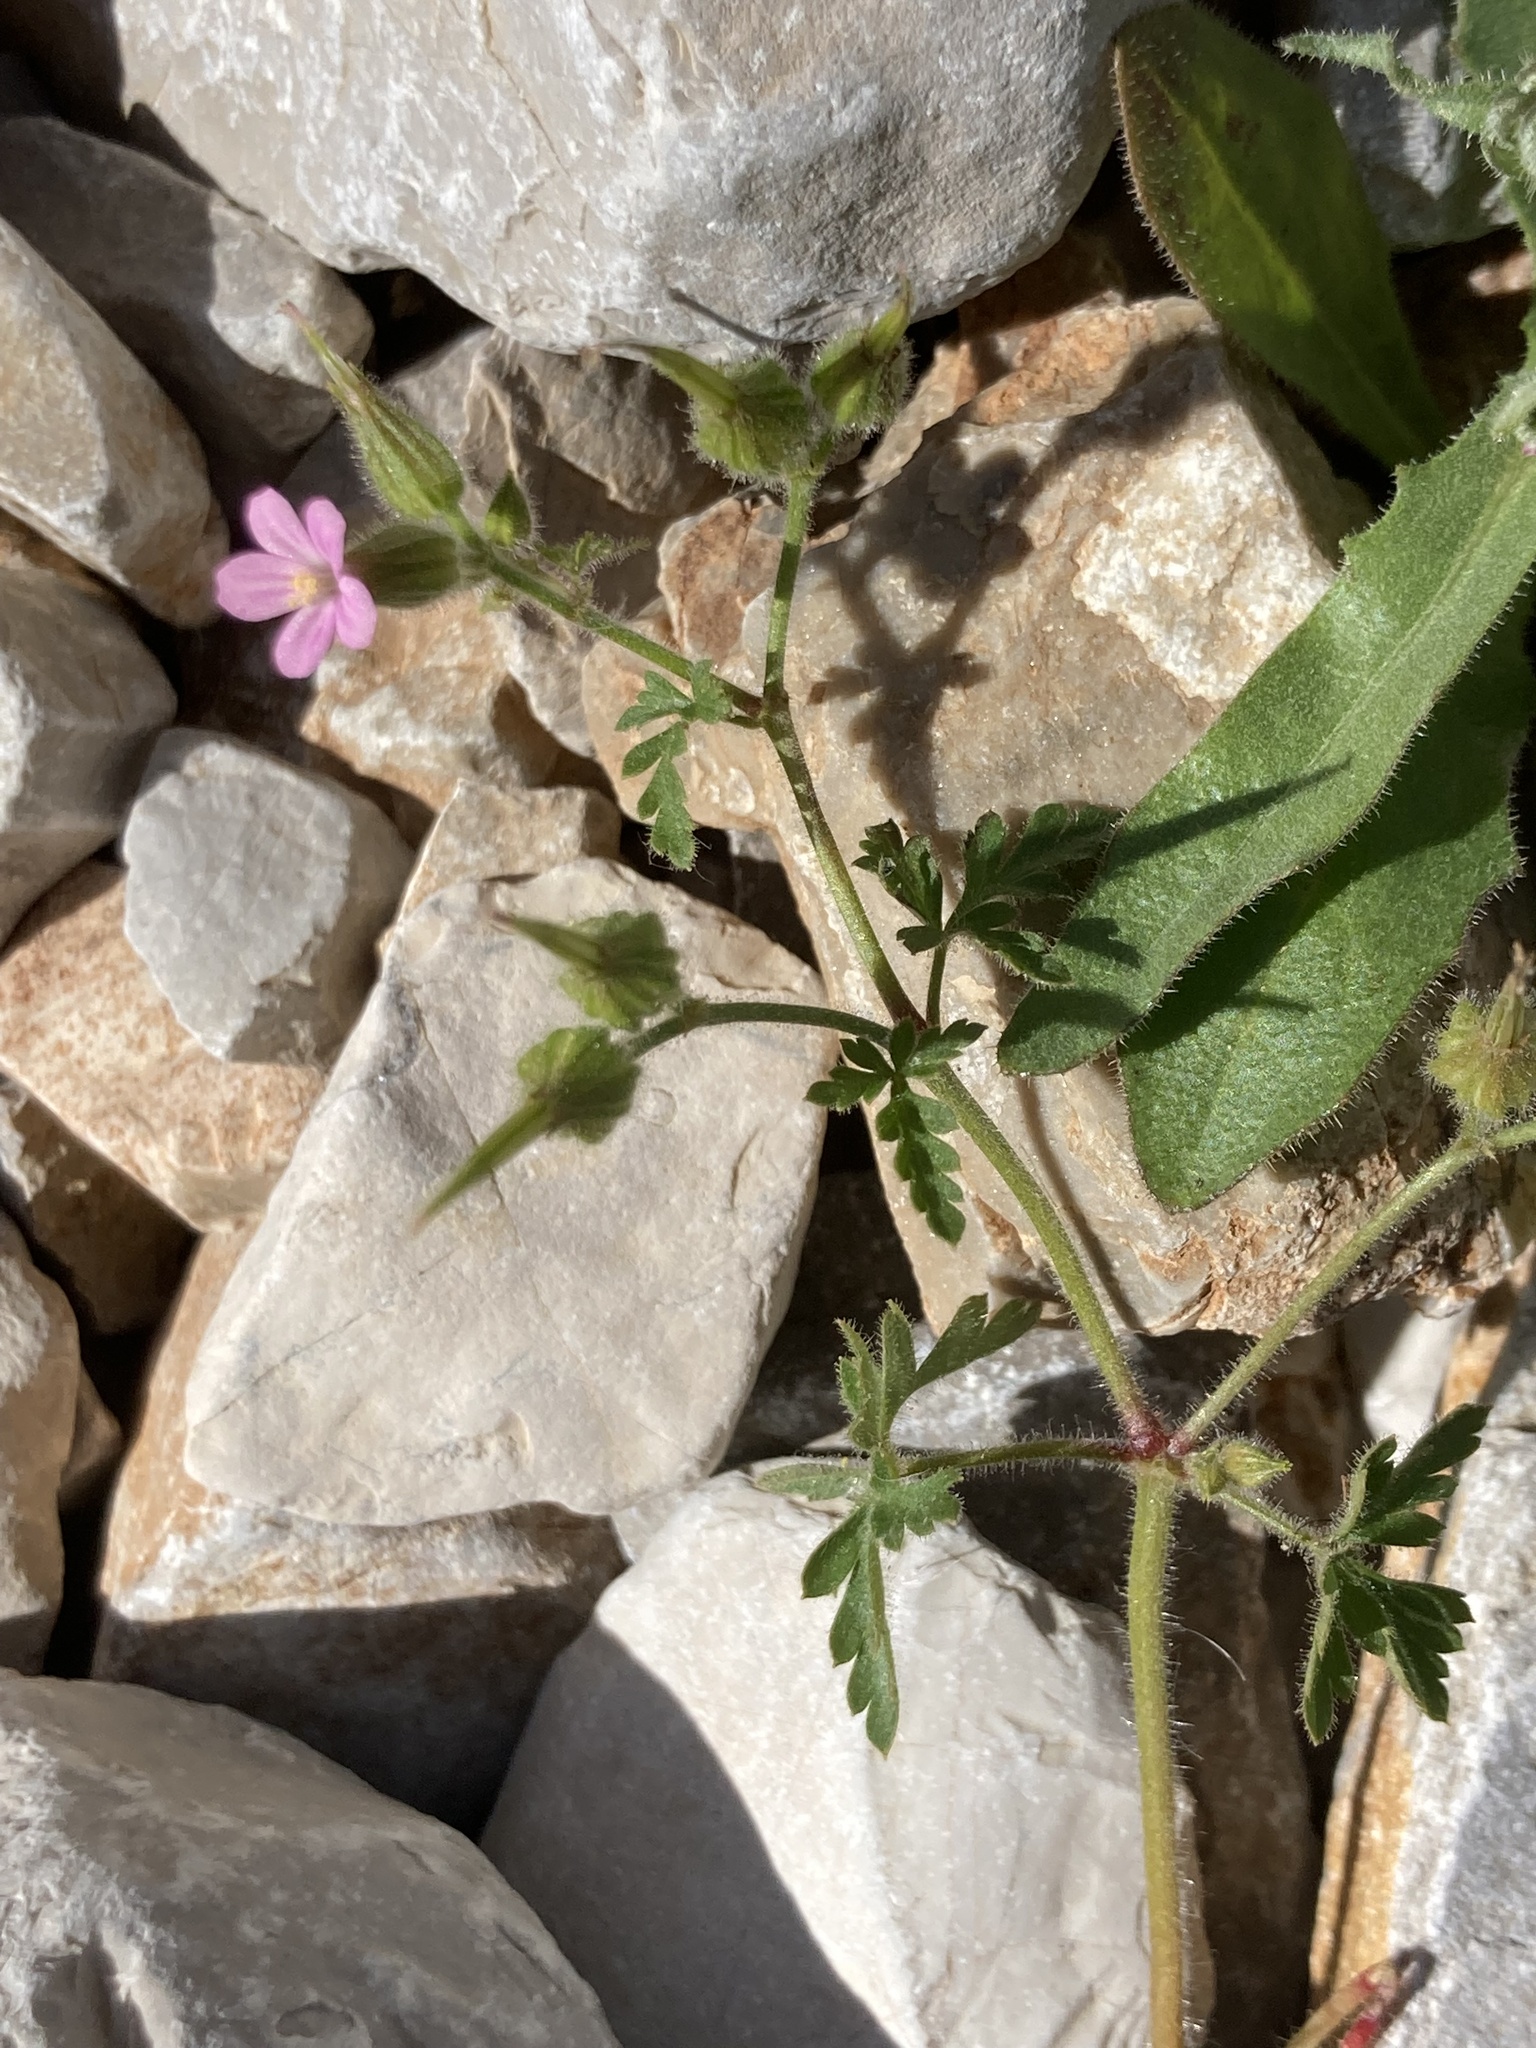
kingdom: Plantae
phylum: Tracheophyta
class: Magnoliopsida
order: Geraniales
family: Geraniaceae
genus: Geranium
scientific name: Geranium purpureum
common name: Little-robin
